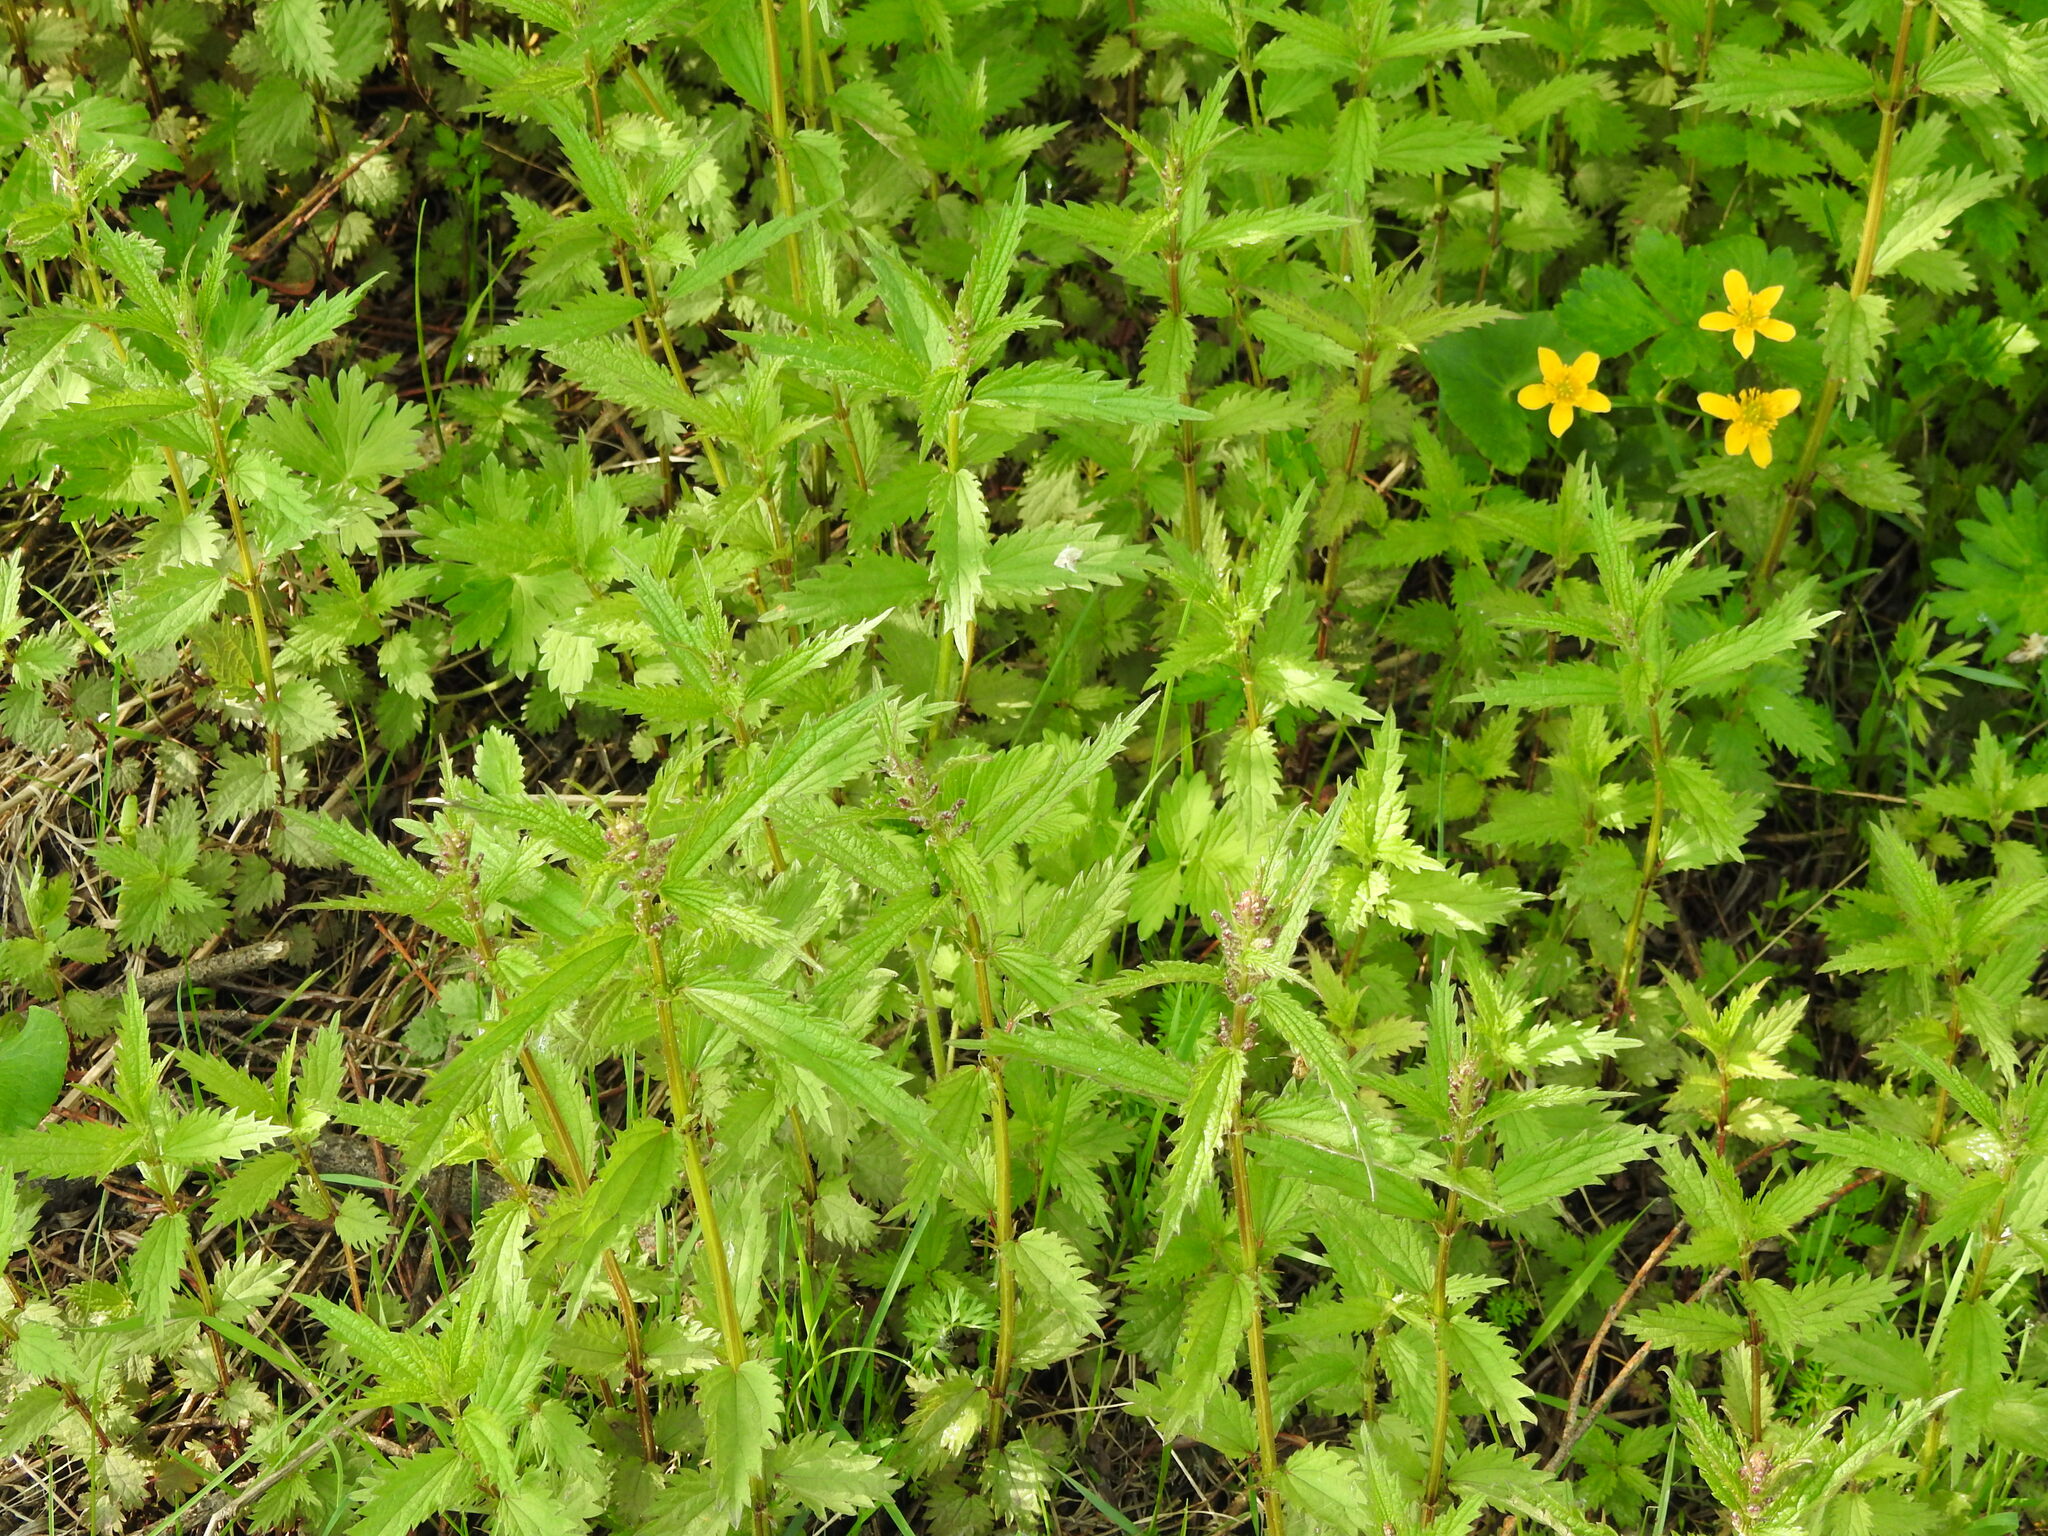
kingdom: Plantae
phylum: Tracheophyta
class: Magnoliopsida
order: Rosales
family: Urticaceae
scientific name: Urticaceae
